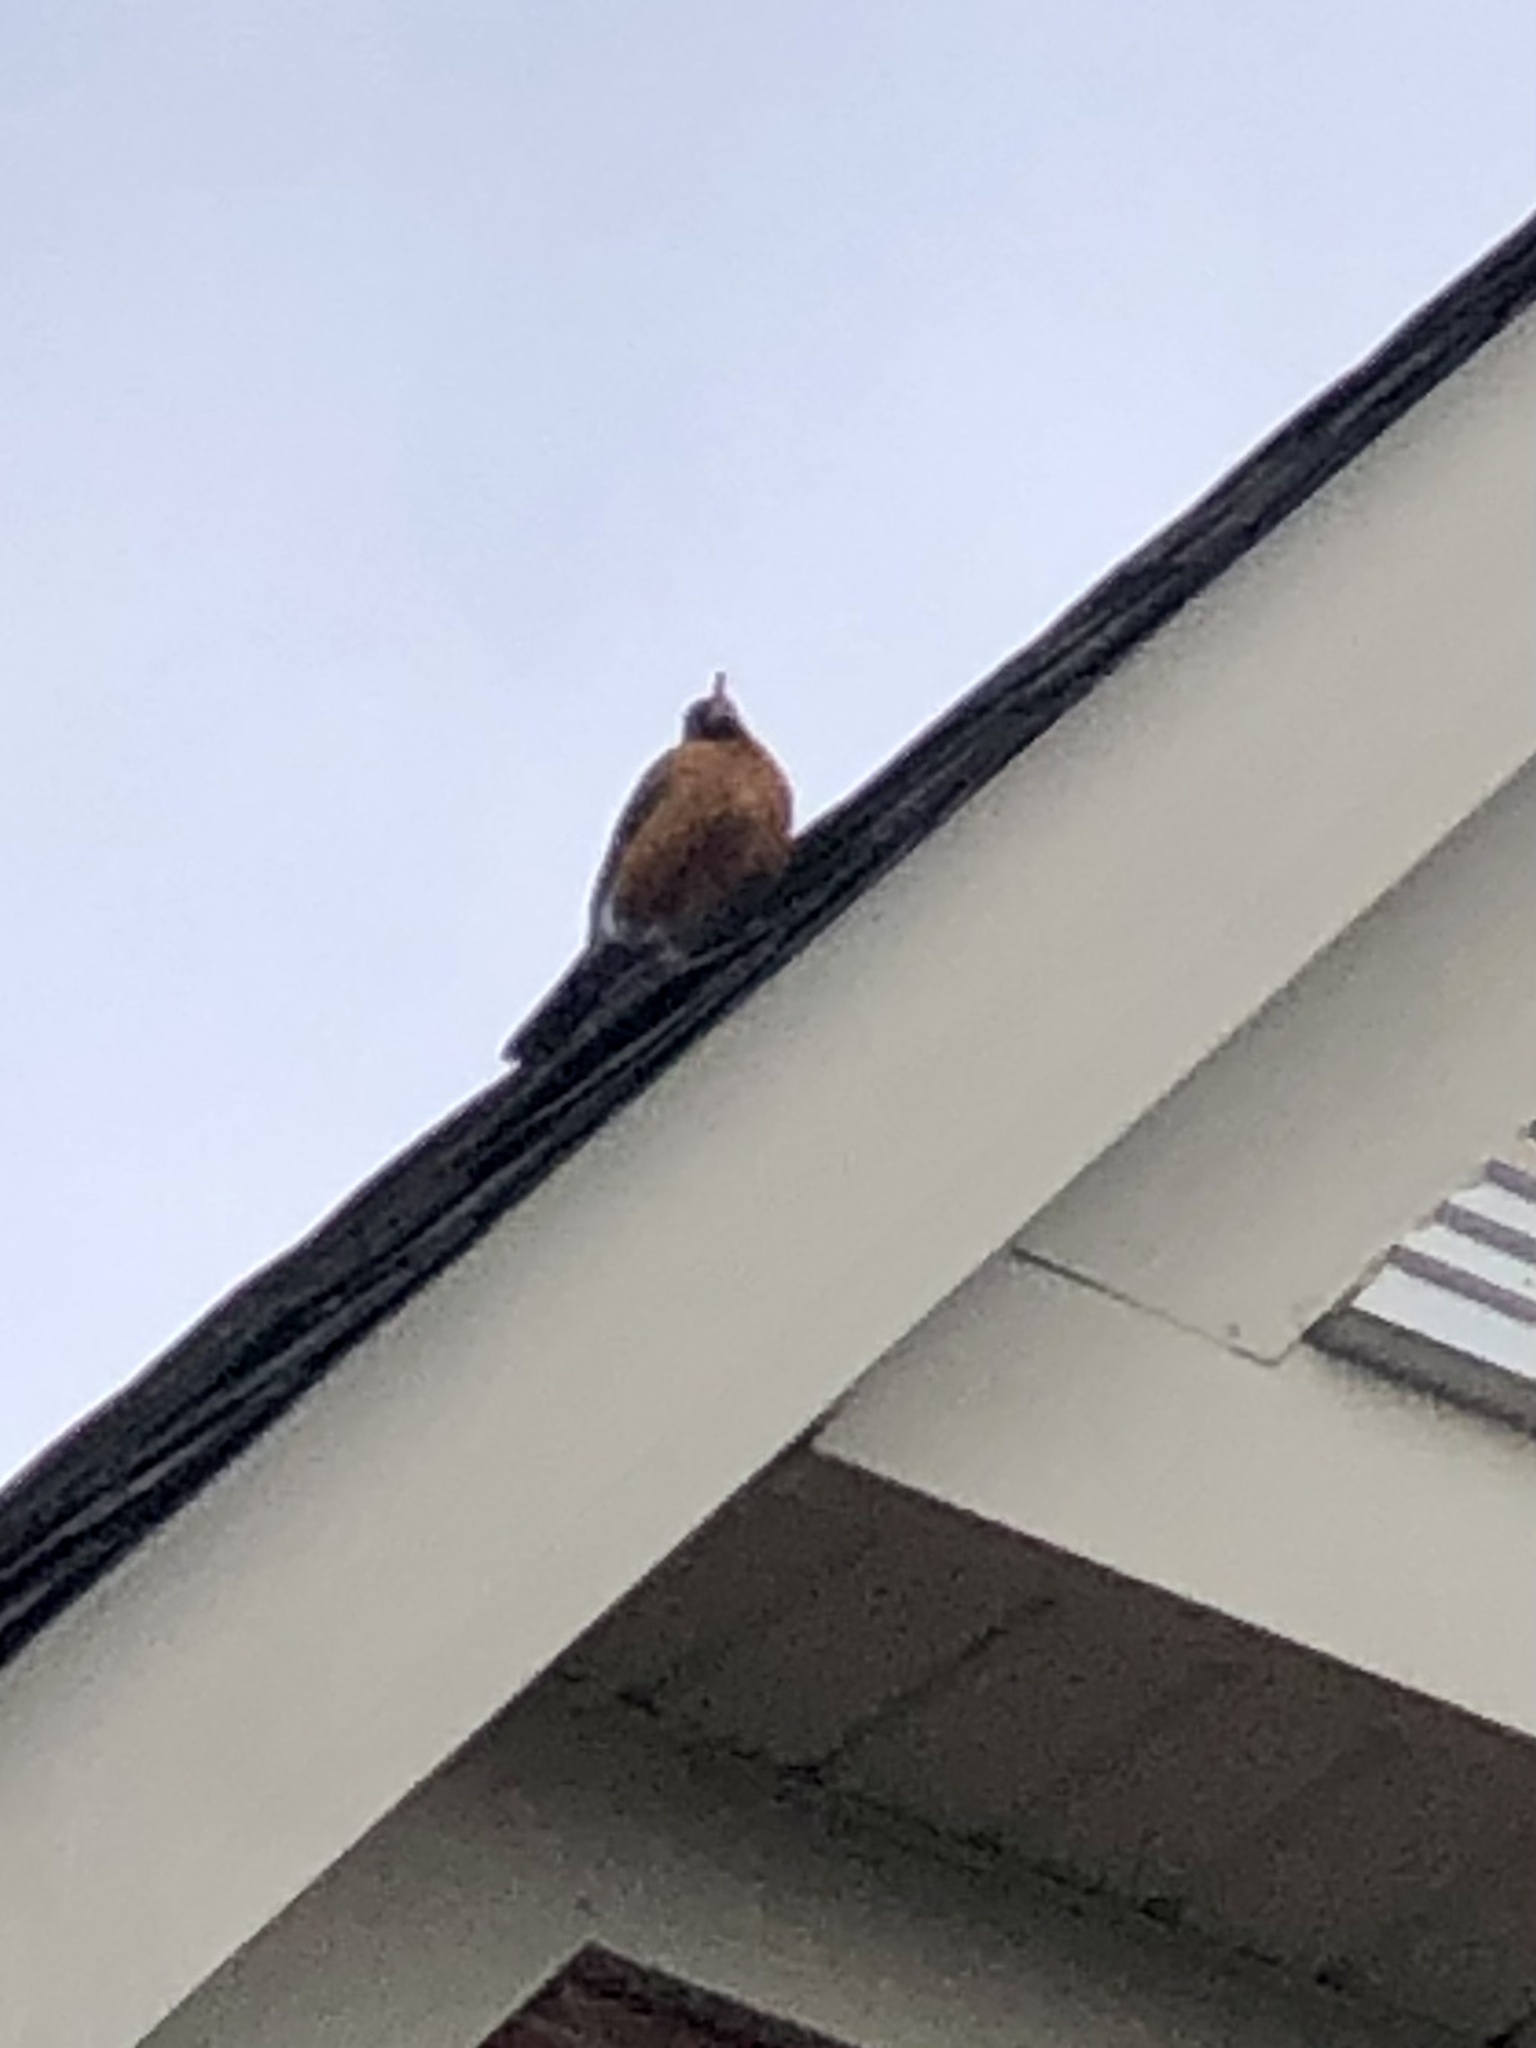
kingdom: Animalia
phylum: Chordata
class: Aves
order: Passeriformes
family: Turdidae
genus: Turdus
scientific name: Turdus migratorius
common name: American robin
